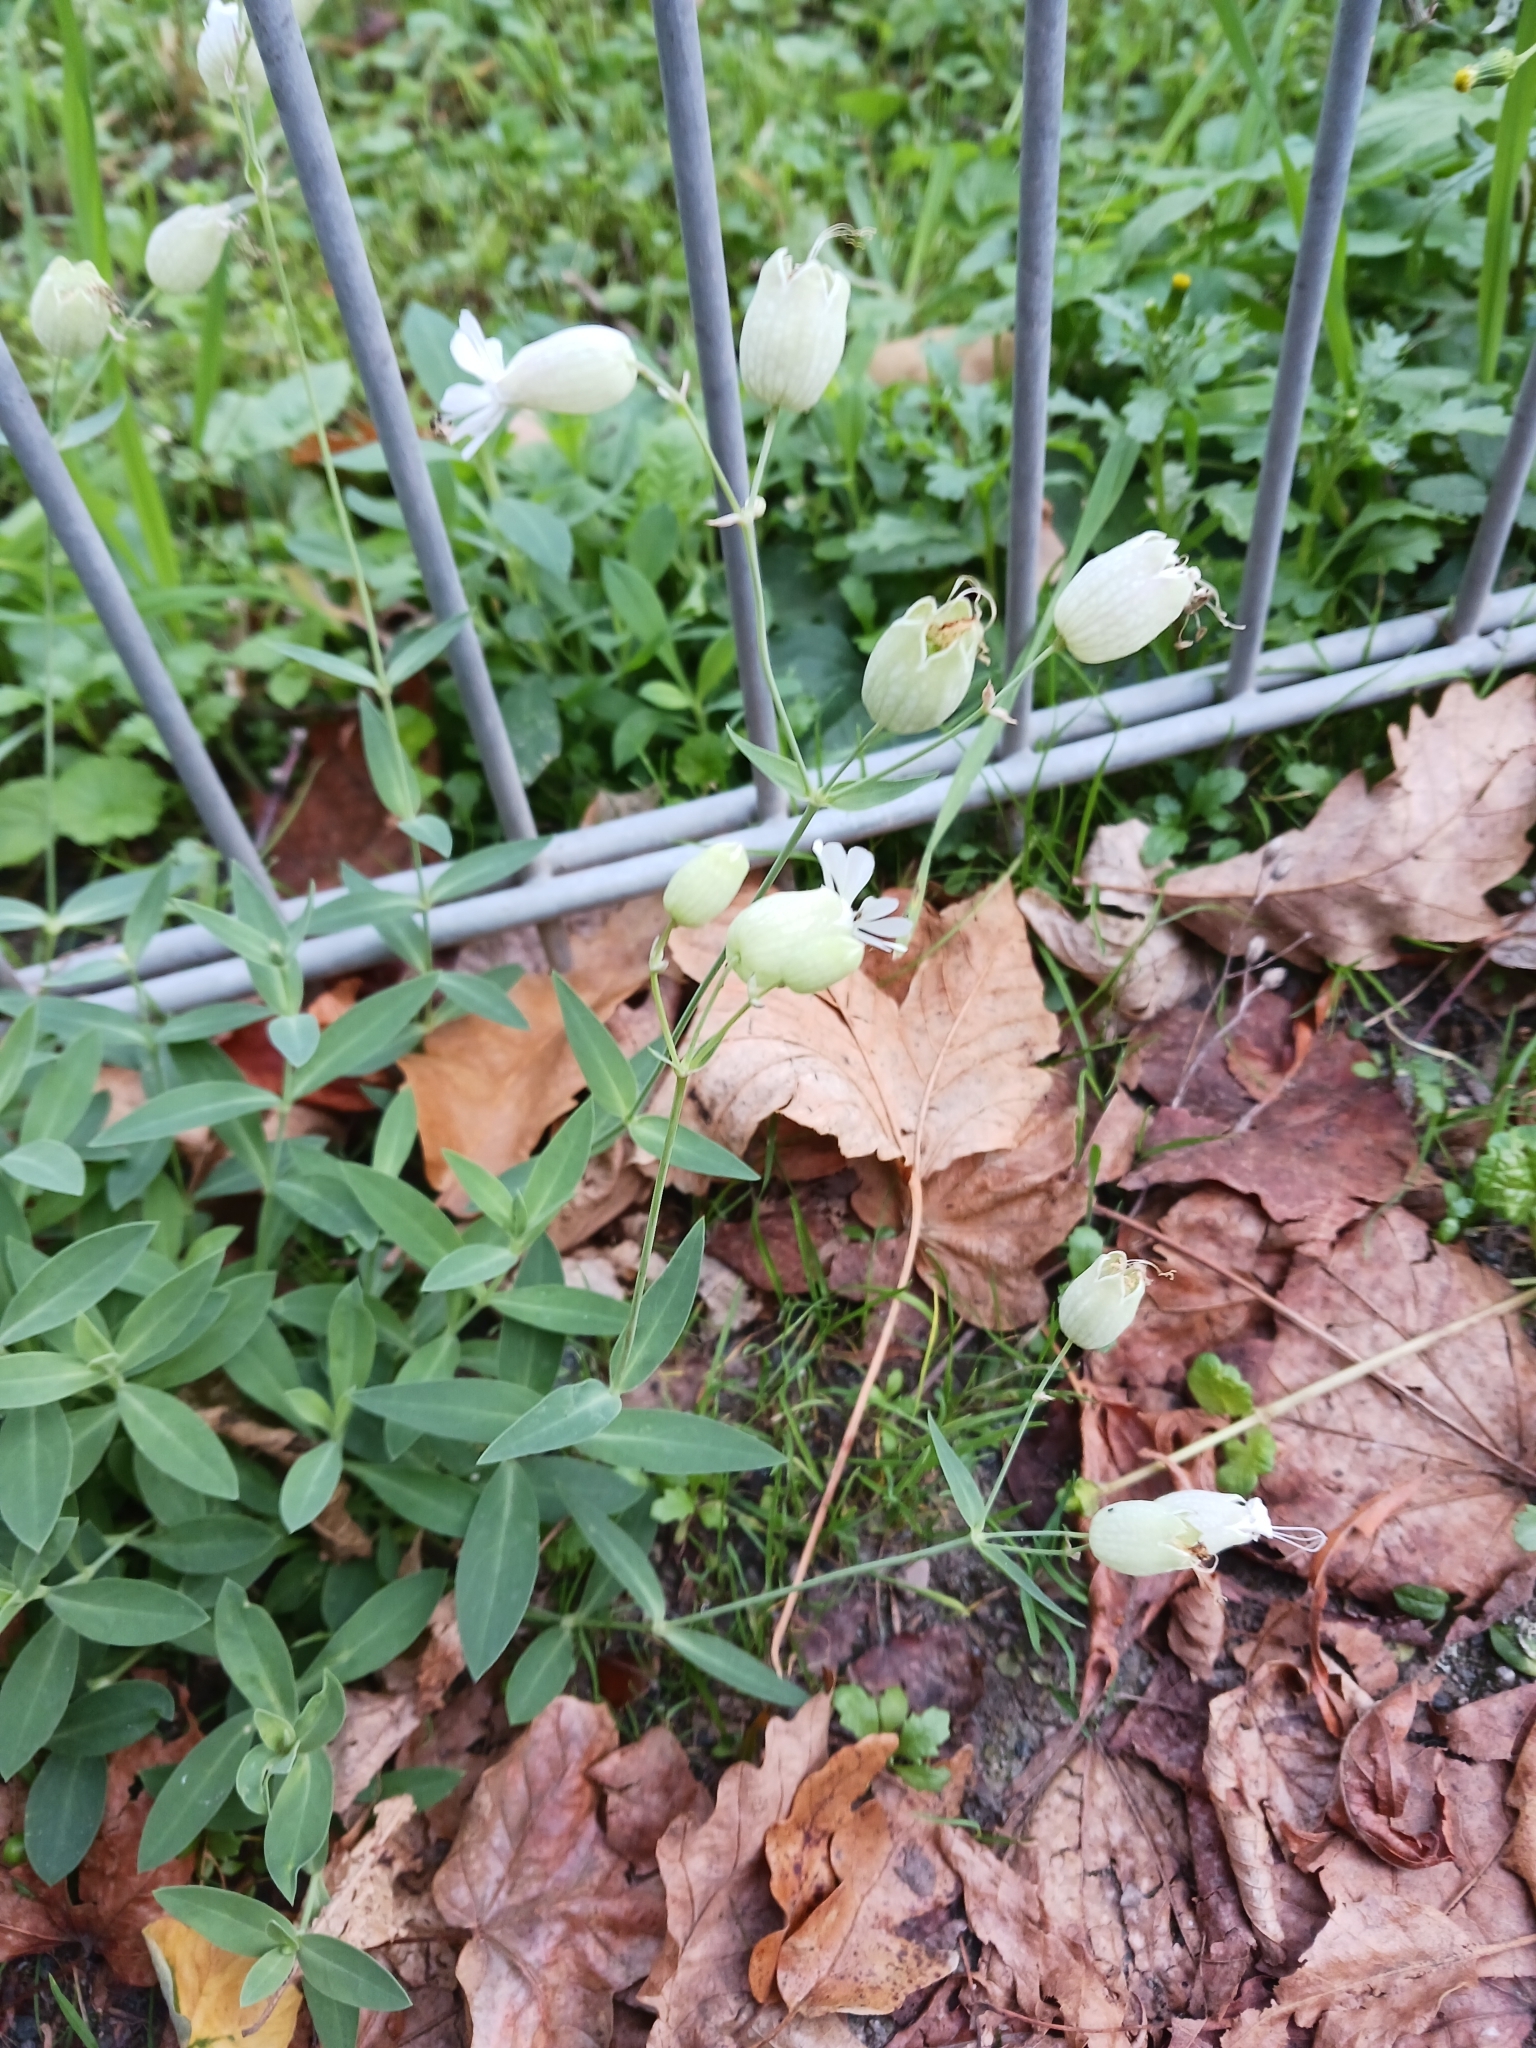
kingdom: Plantae
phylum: Tracheophyta
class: Magnoliopsida
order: Caryophyllales
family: Caryophyllaceae
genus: Silene
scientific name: Silene vulgaris
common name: Bladder campion
